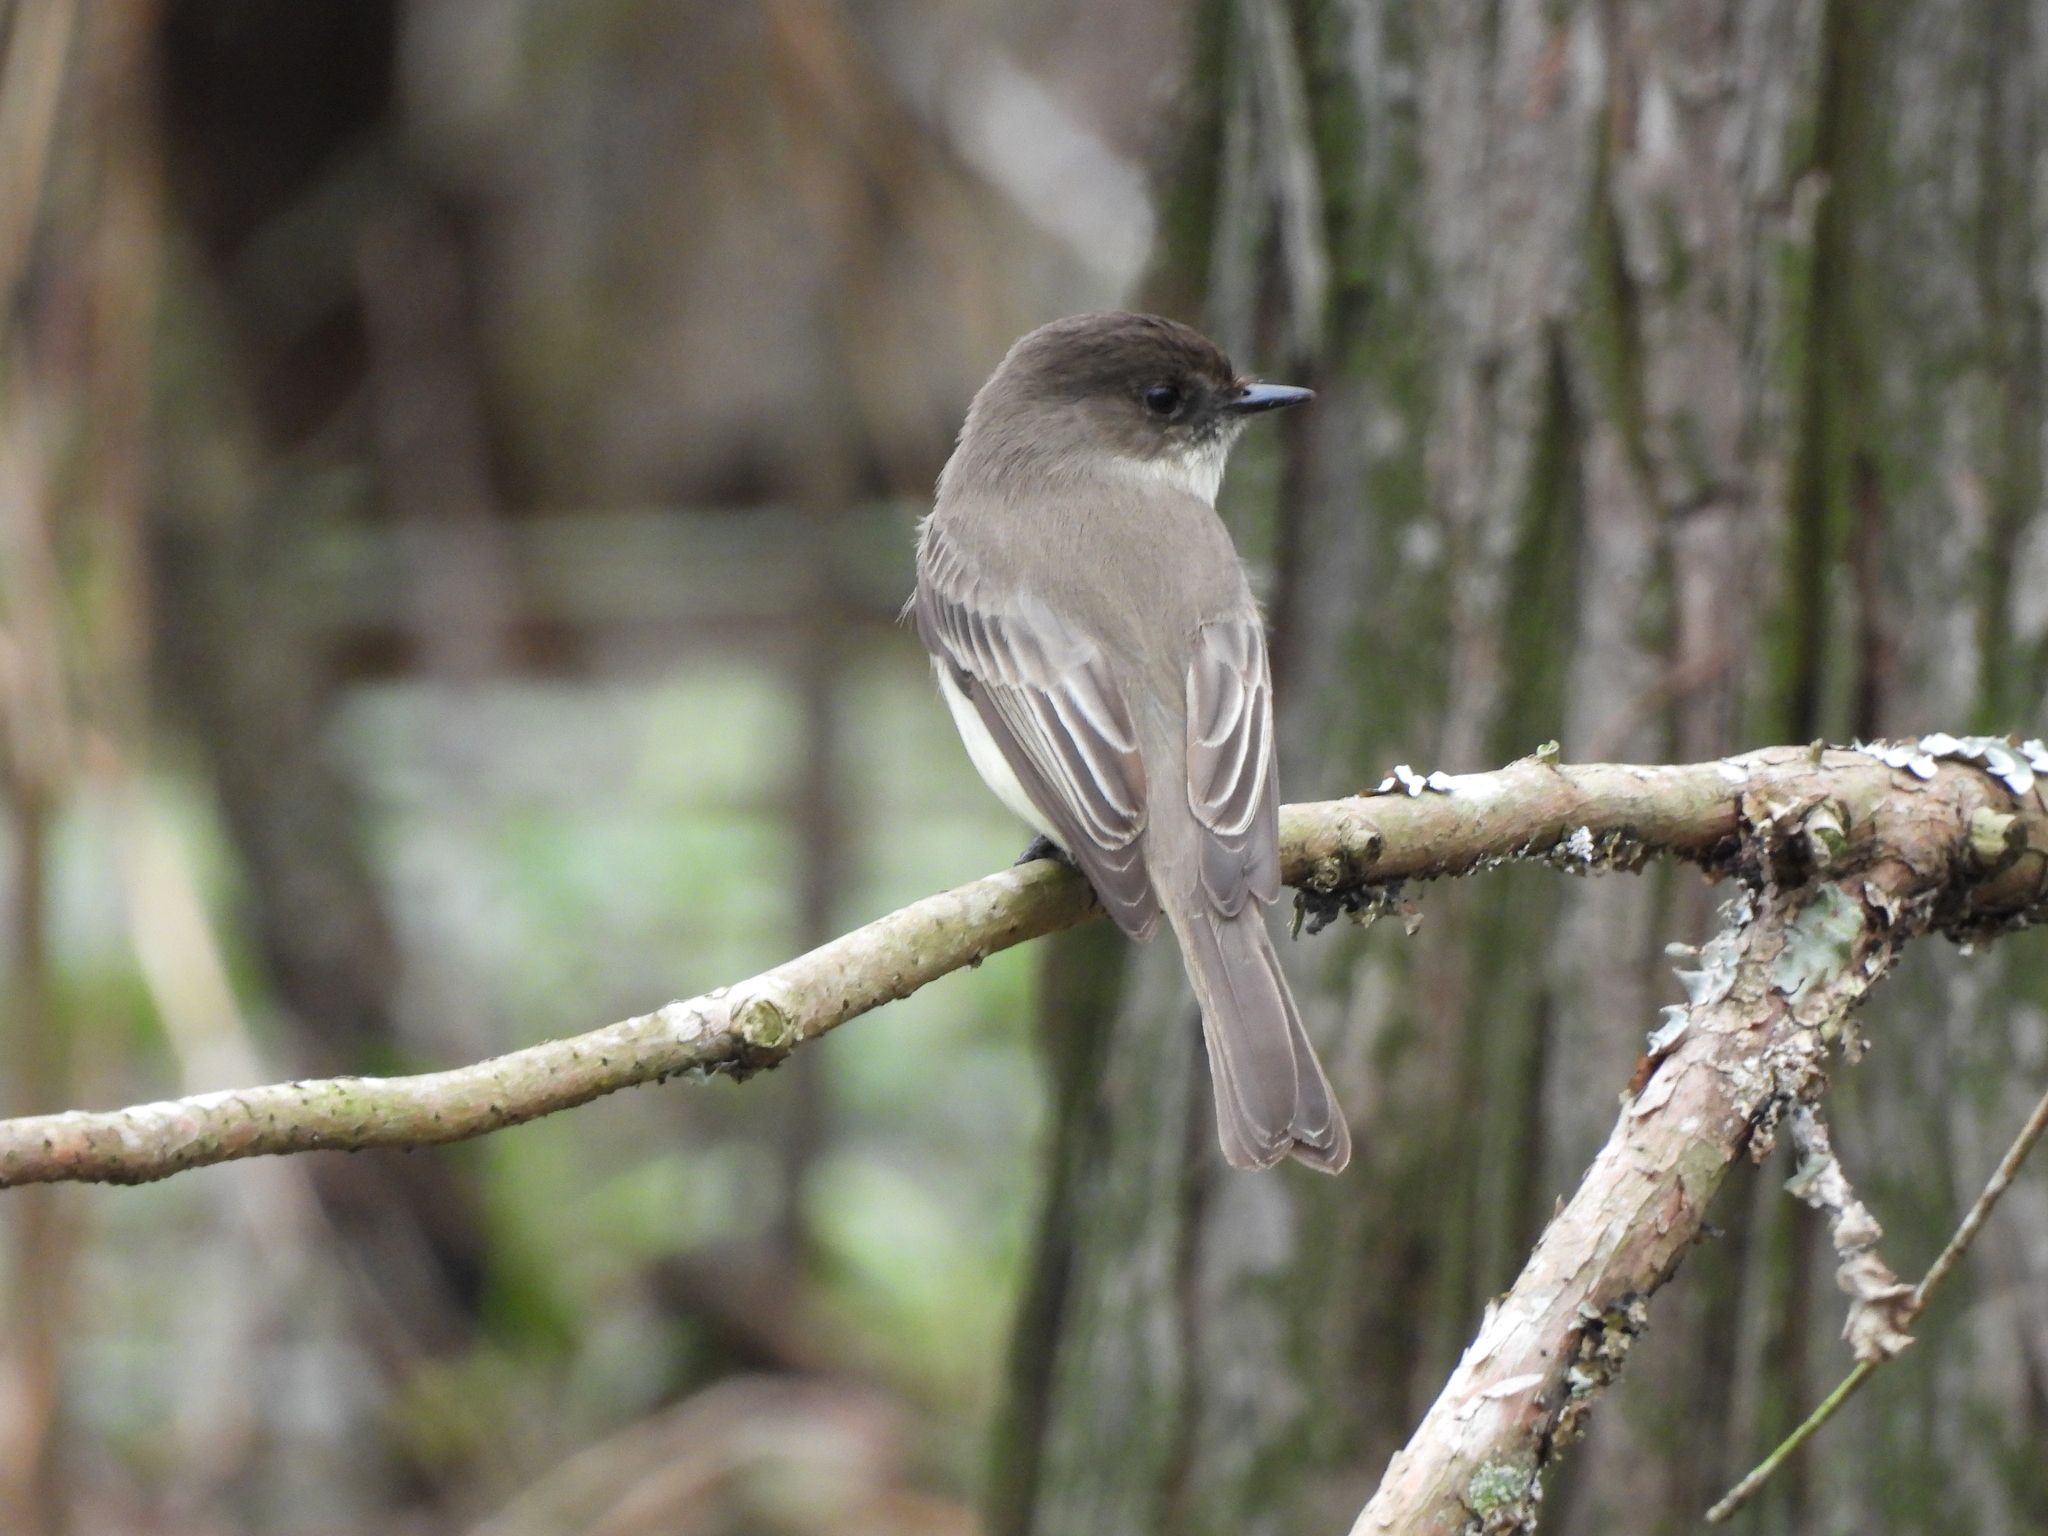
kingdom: Animalia
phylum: Chordata
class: Aves
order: Passeriformes
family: Tyrannidae
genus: Sayornis
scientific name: Sayornis phoebe
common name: Eastern phoebe
